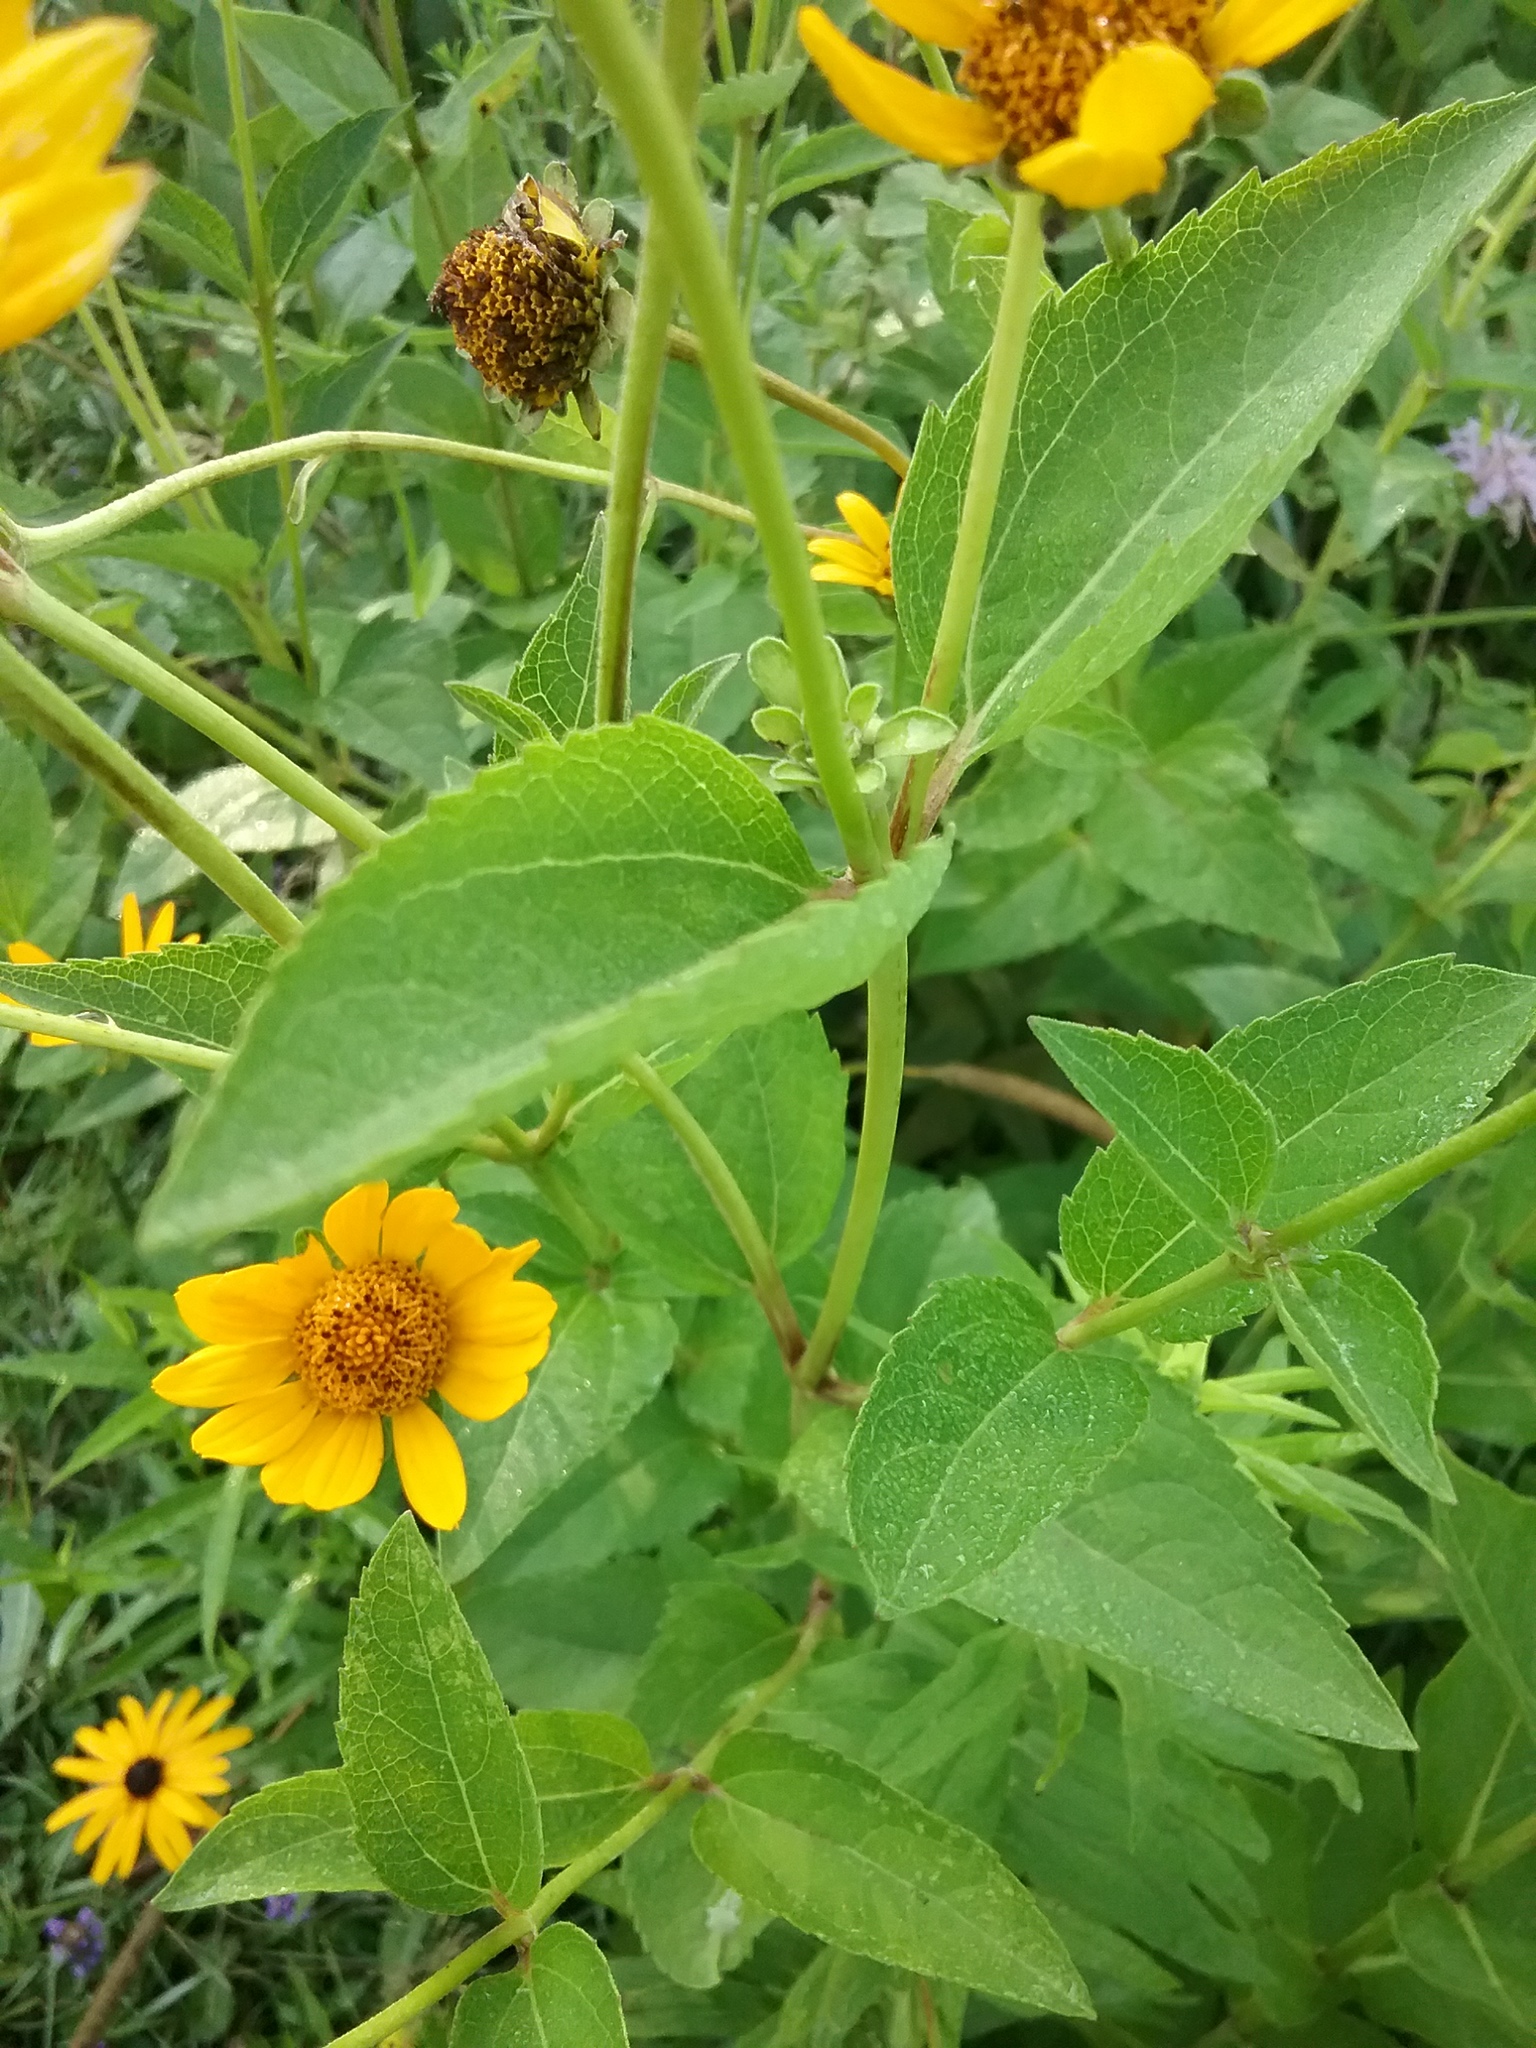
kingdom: Plantae
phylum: Tracheophyta
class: Magnoliopsida
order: Asterales
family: Asteraceae
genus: Heliopsis
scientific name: Heliopsis helianthoides
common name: False sunflower
